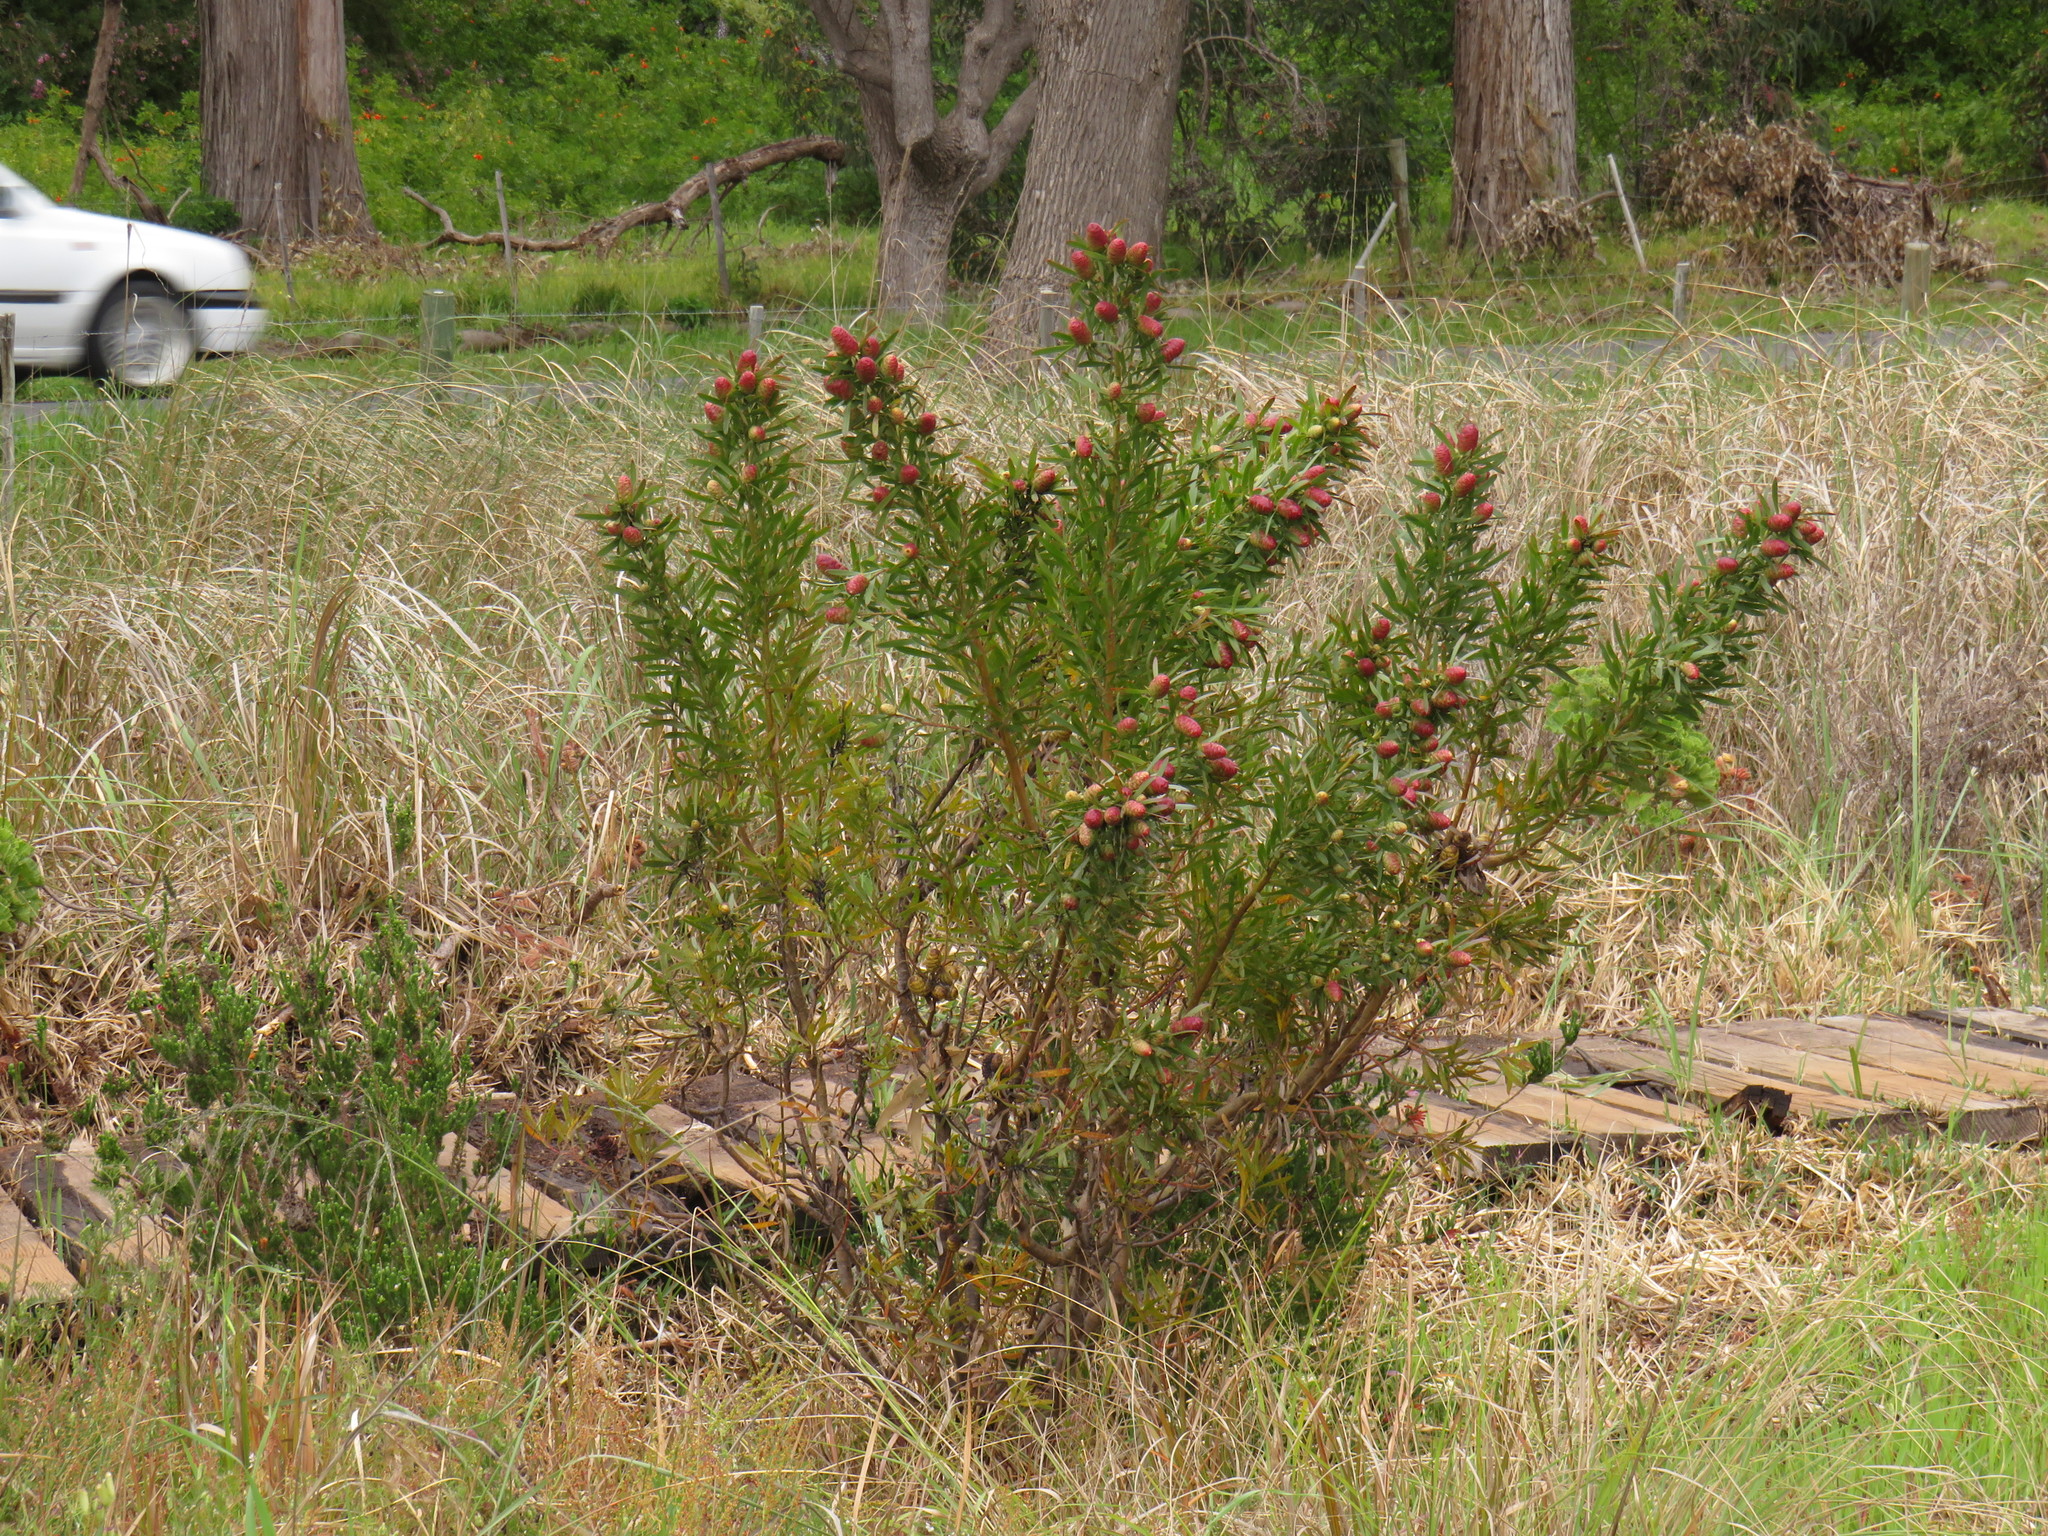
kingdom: Plantae
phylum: Tracheophyta
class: Magnoliopsida
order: Proteales
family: Proteaceae
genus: Leucadendron
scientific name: Leucadendron macowanii
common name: Acacia-leaf conebush
